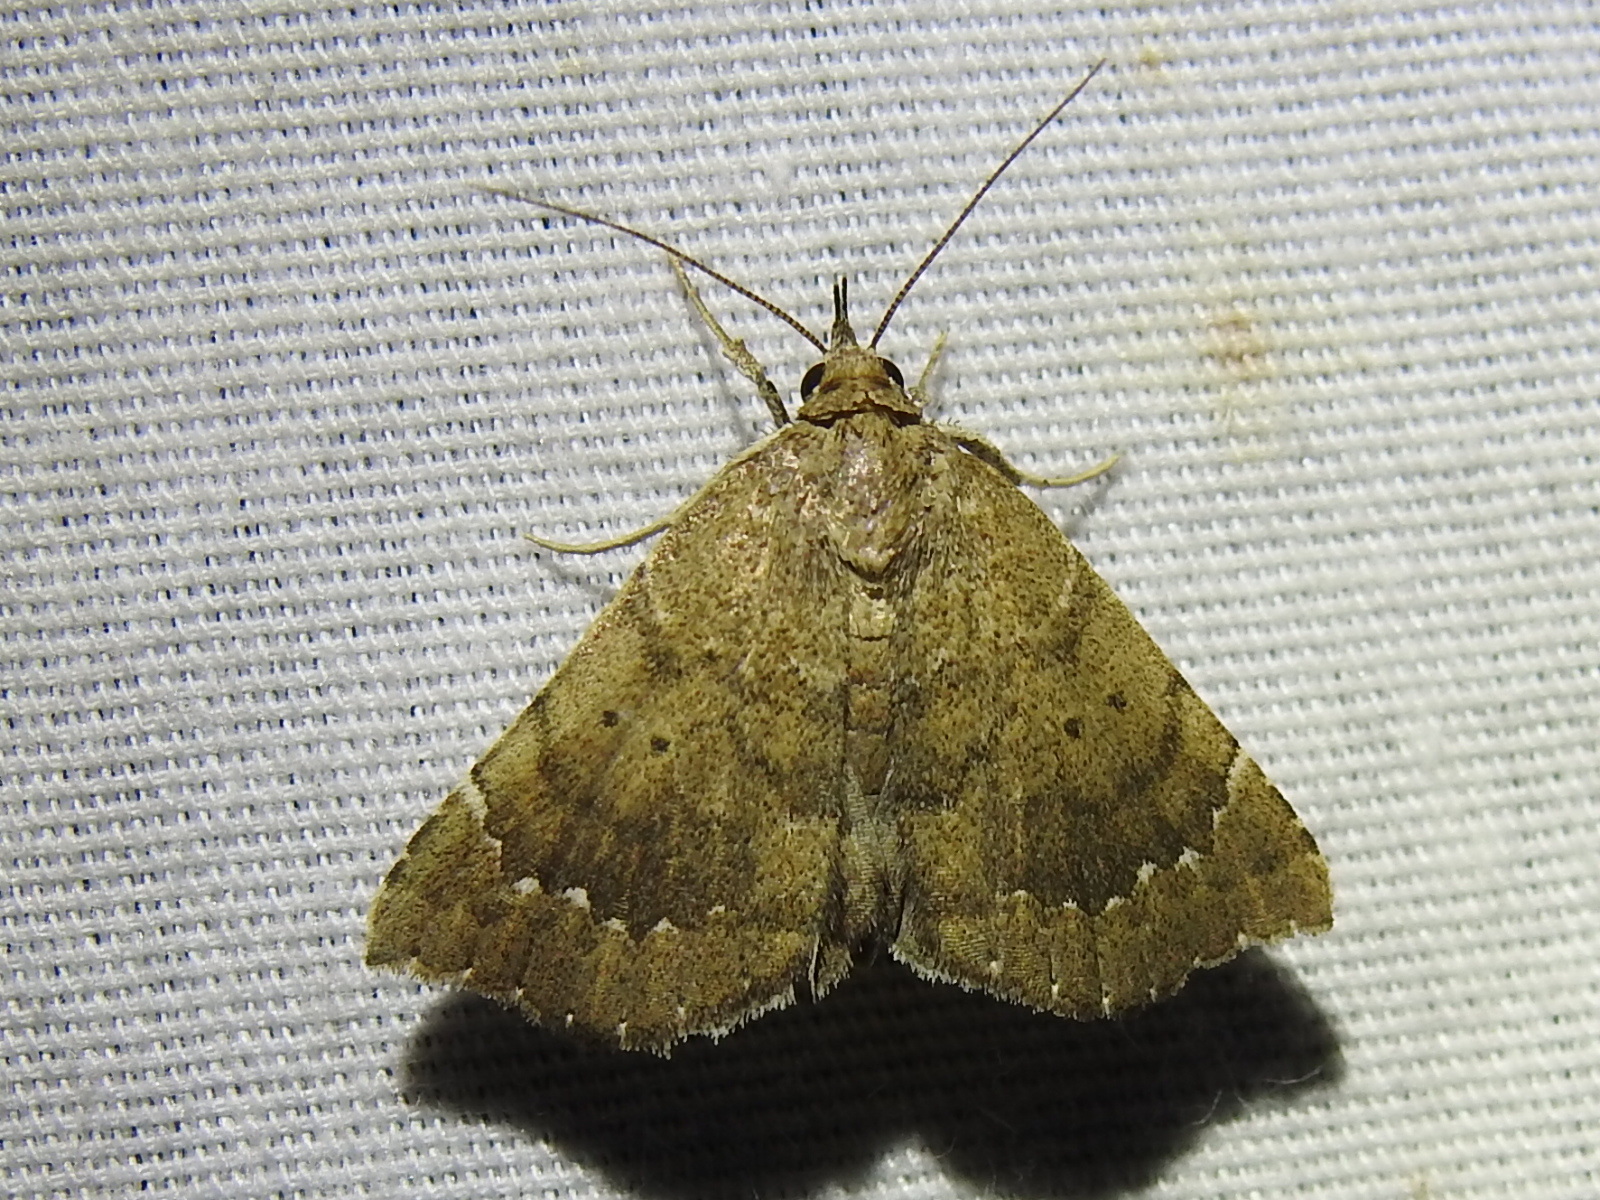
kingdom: Animalia
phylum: Arthropoda
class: Insecta
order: Lepidoptera
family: Erebidae
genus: Focillidia
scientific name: Focillidia texana
